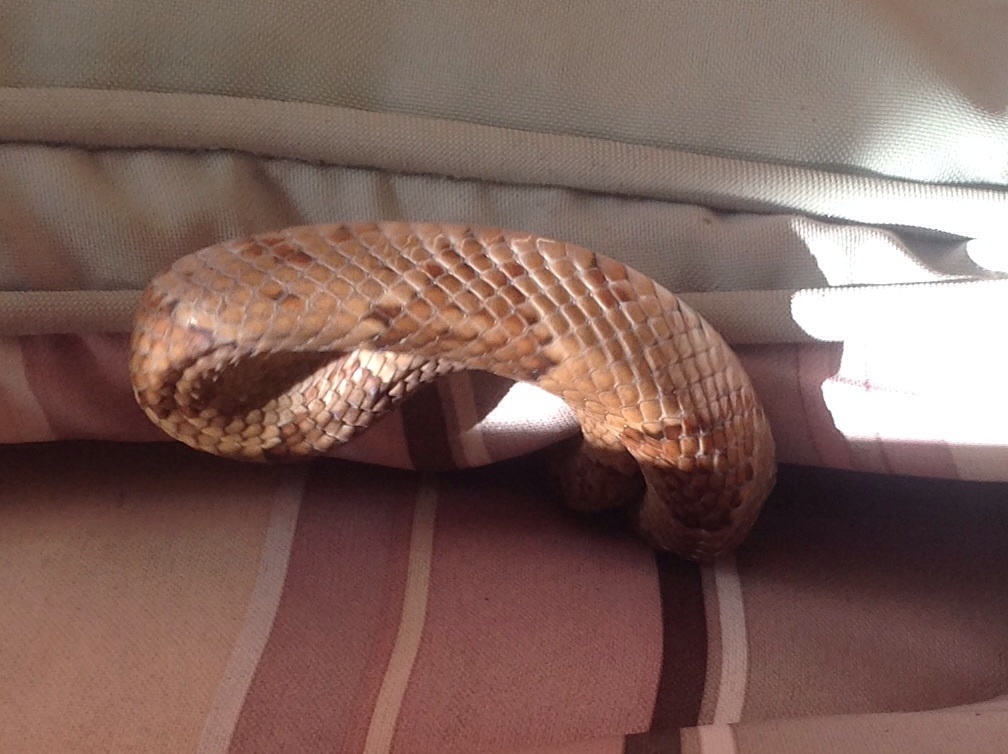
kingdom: Animalia
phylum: Chordata
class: Squamata
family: Colubridae
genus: Trimorphodon
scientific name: Trimorphodon paucimaculatus
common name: Sinaloan lyresnake
